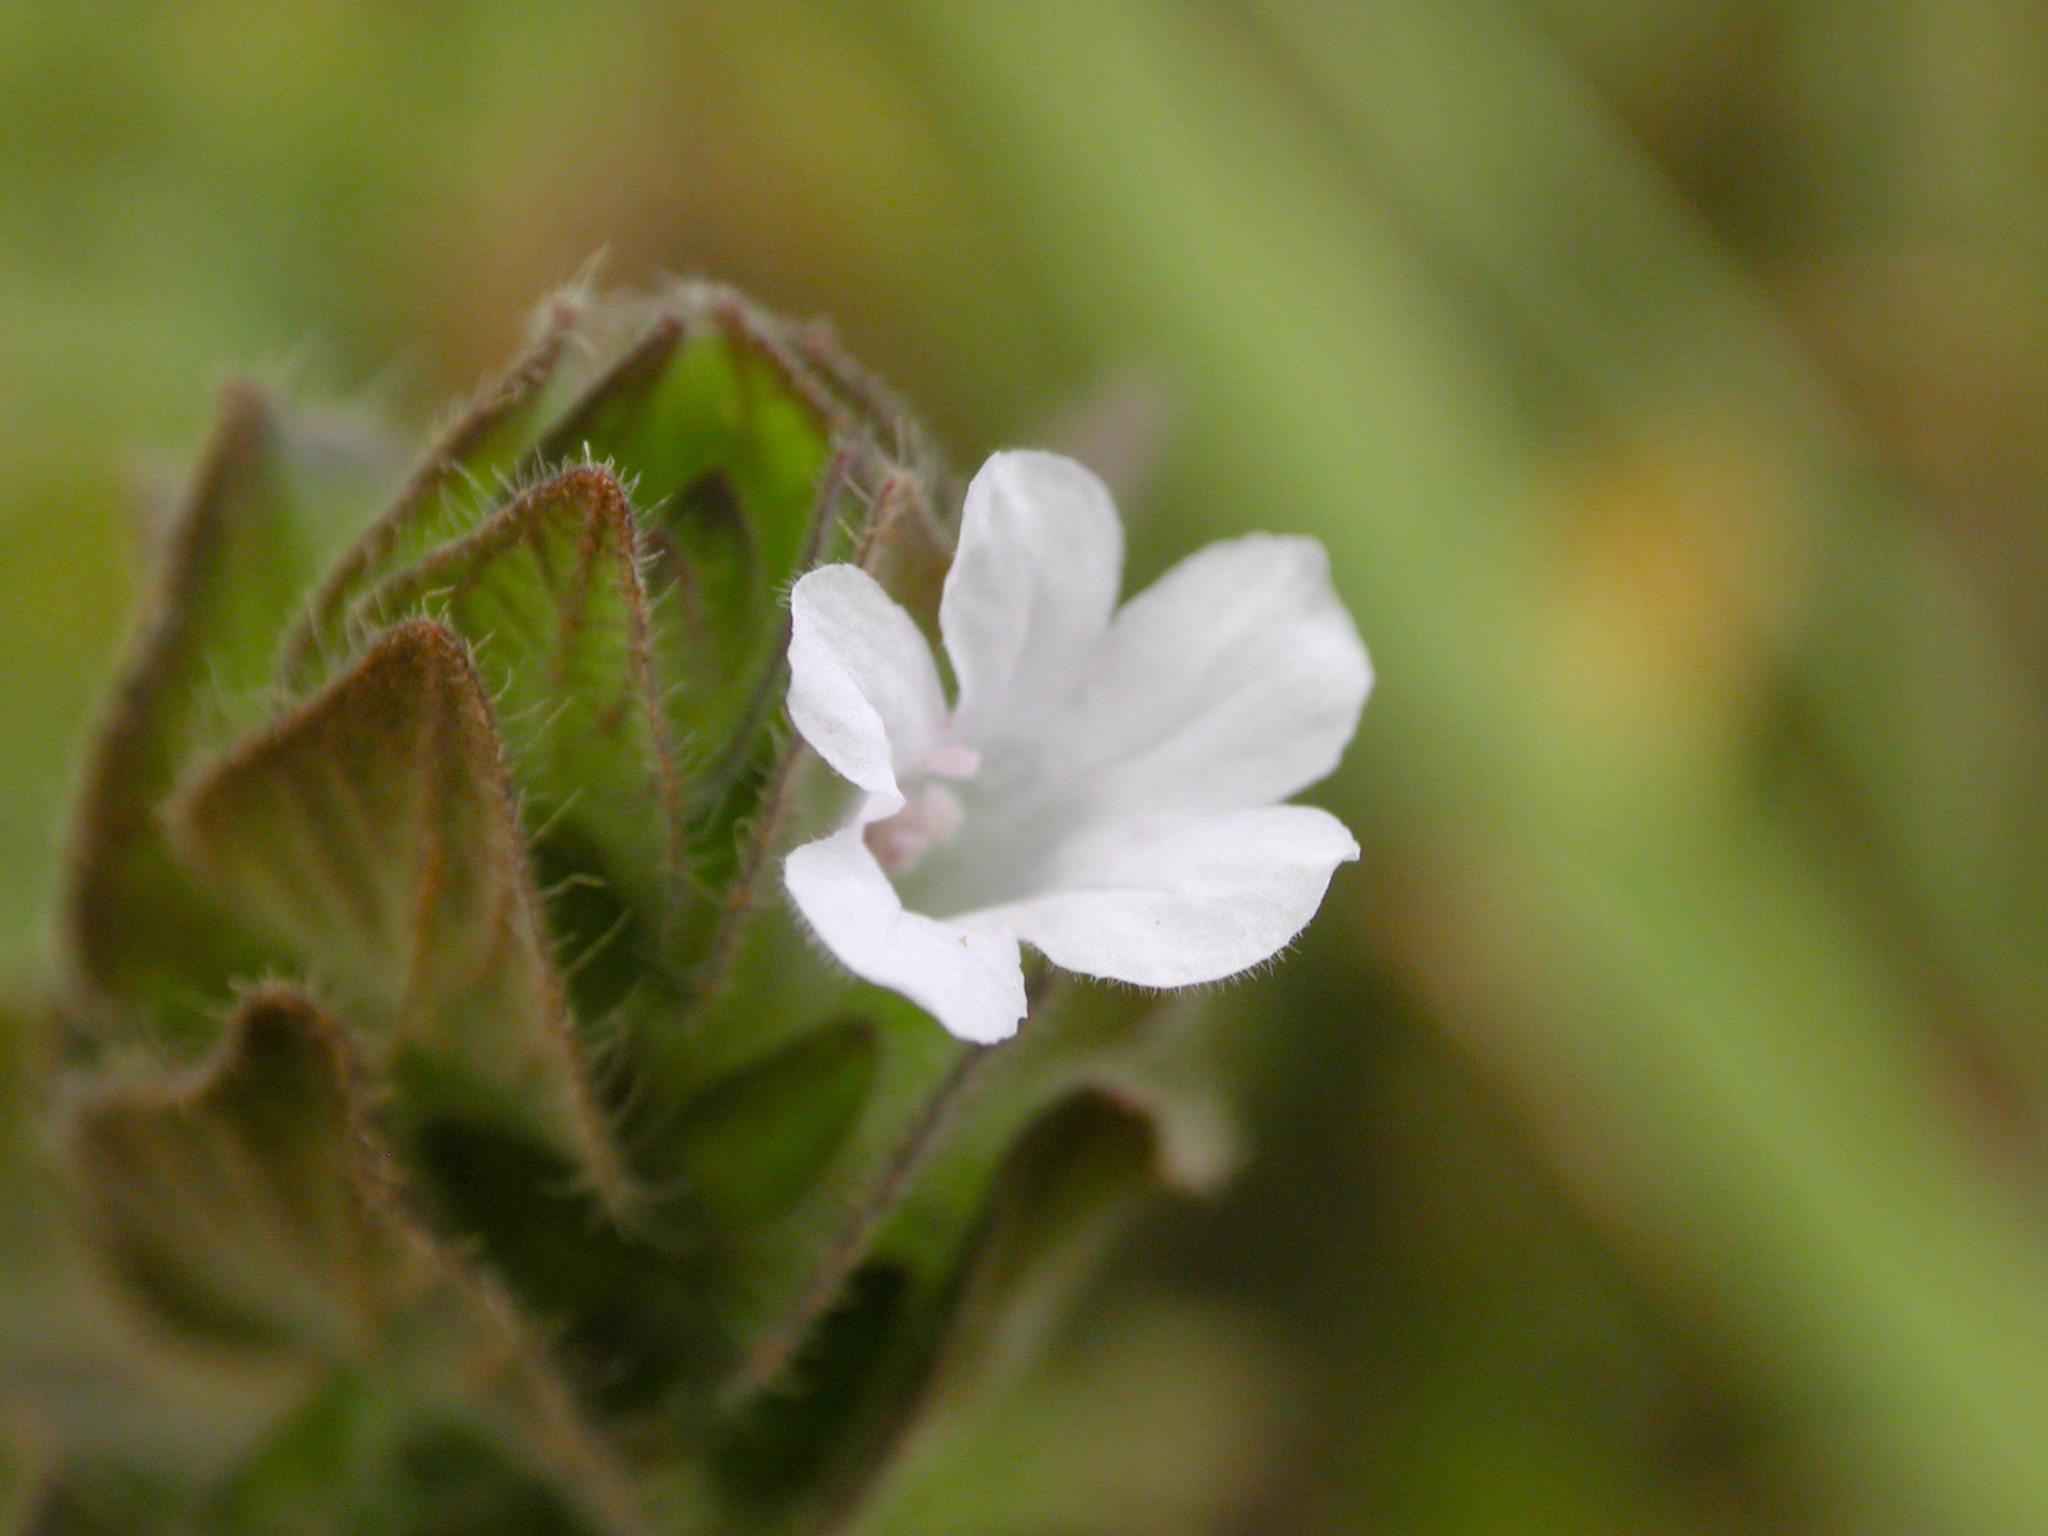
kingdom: Plantae
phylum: Tracheophyta
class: Magnoliopsida
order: Lamiales
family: Acanthaceae
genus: Ruellia
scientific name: Ruellia blechum
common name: Browne's blechum
